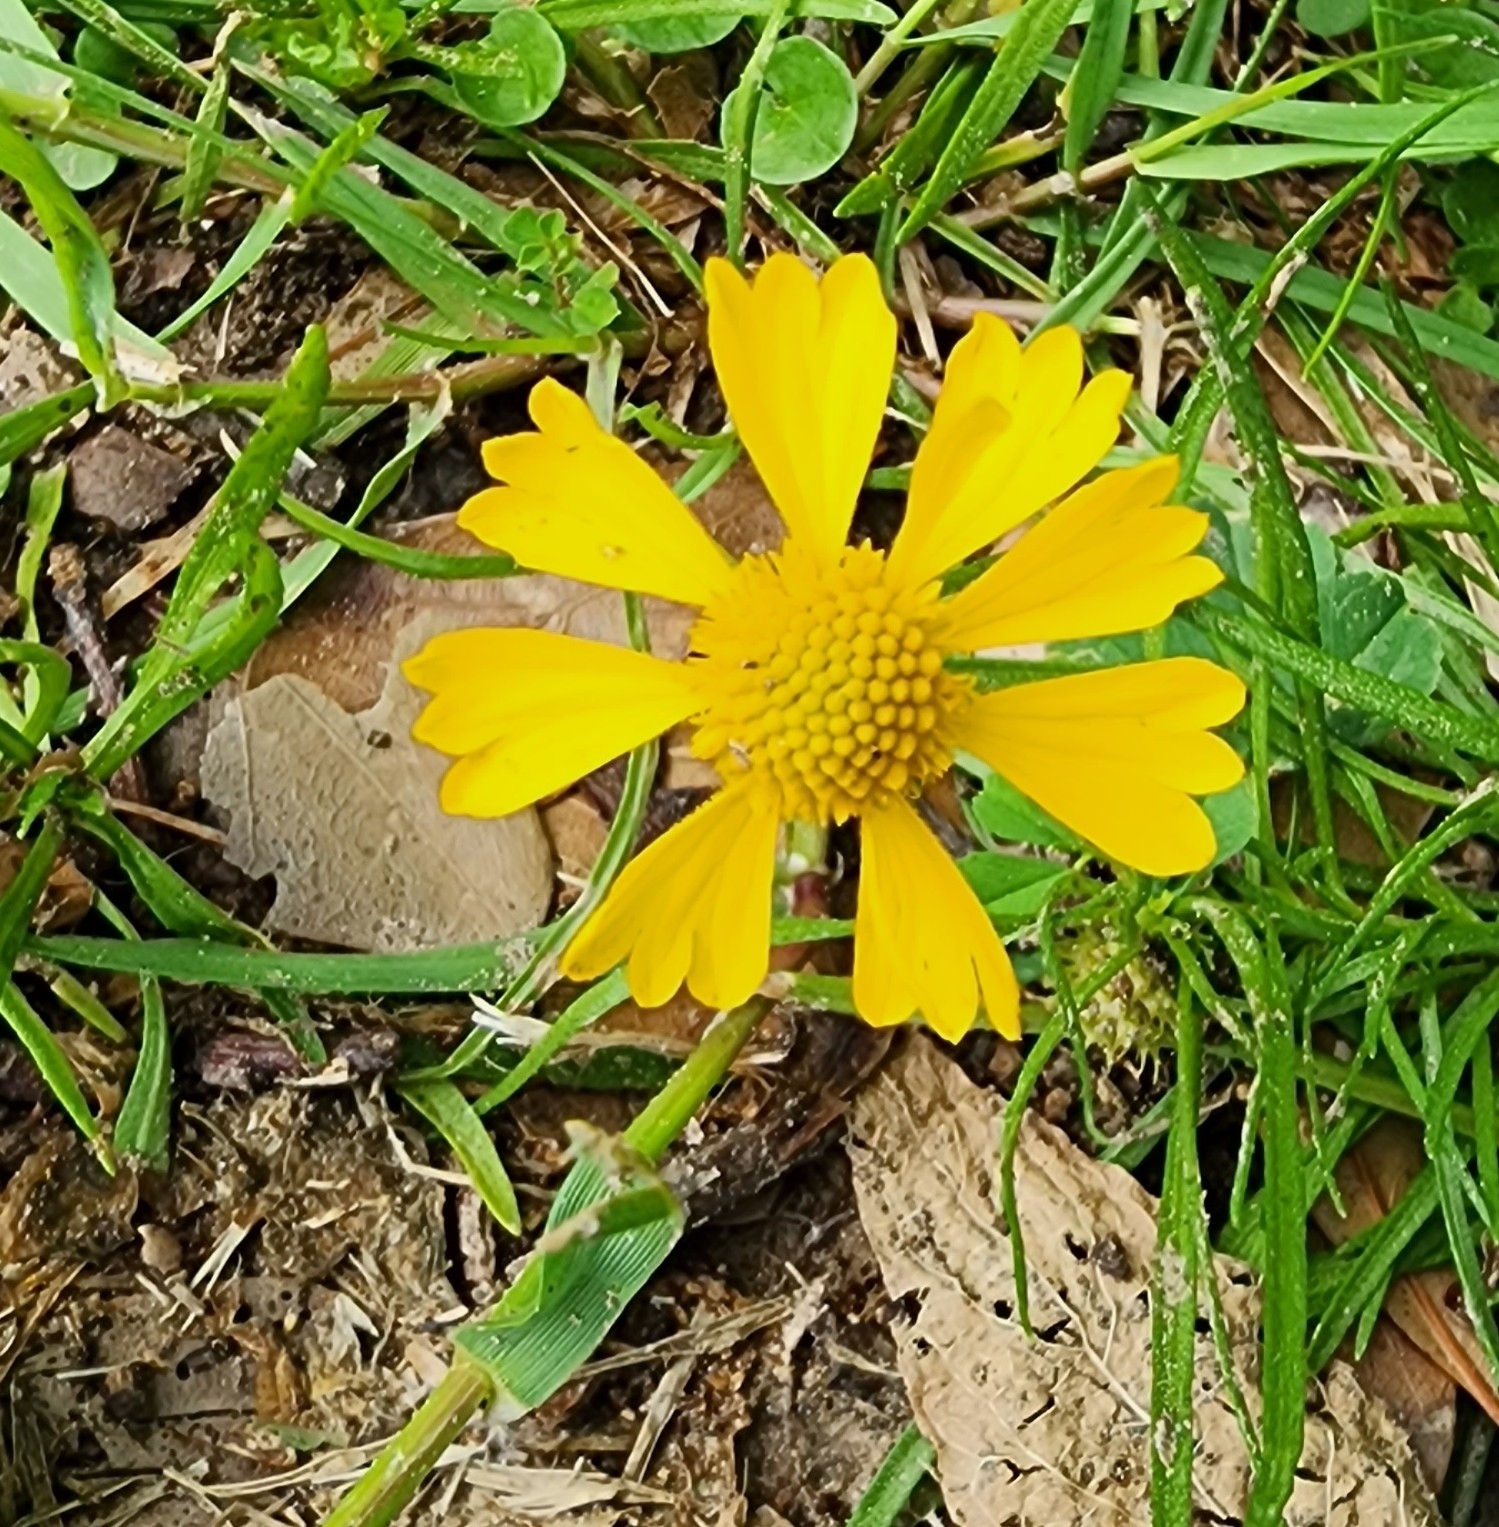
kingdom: Plantae
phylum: Tracheophyta
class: Magnoliopsida
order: Asterales
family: Asteraceae
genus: Helenium
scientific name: Helenium amarum
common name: Bitter sneezeweed
